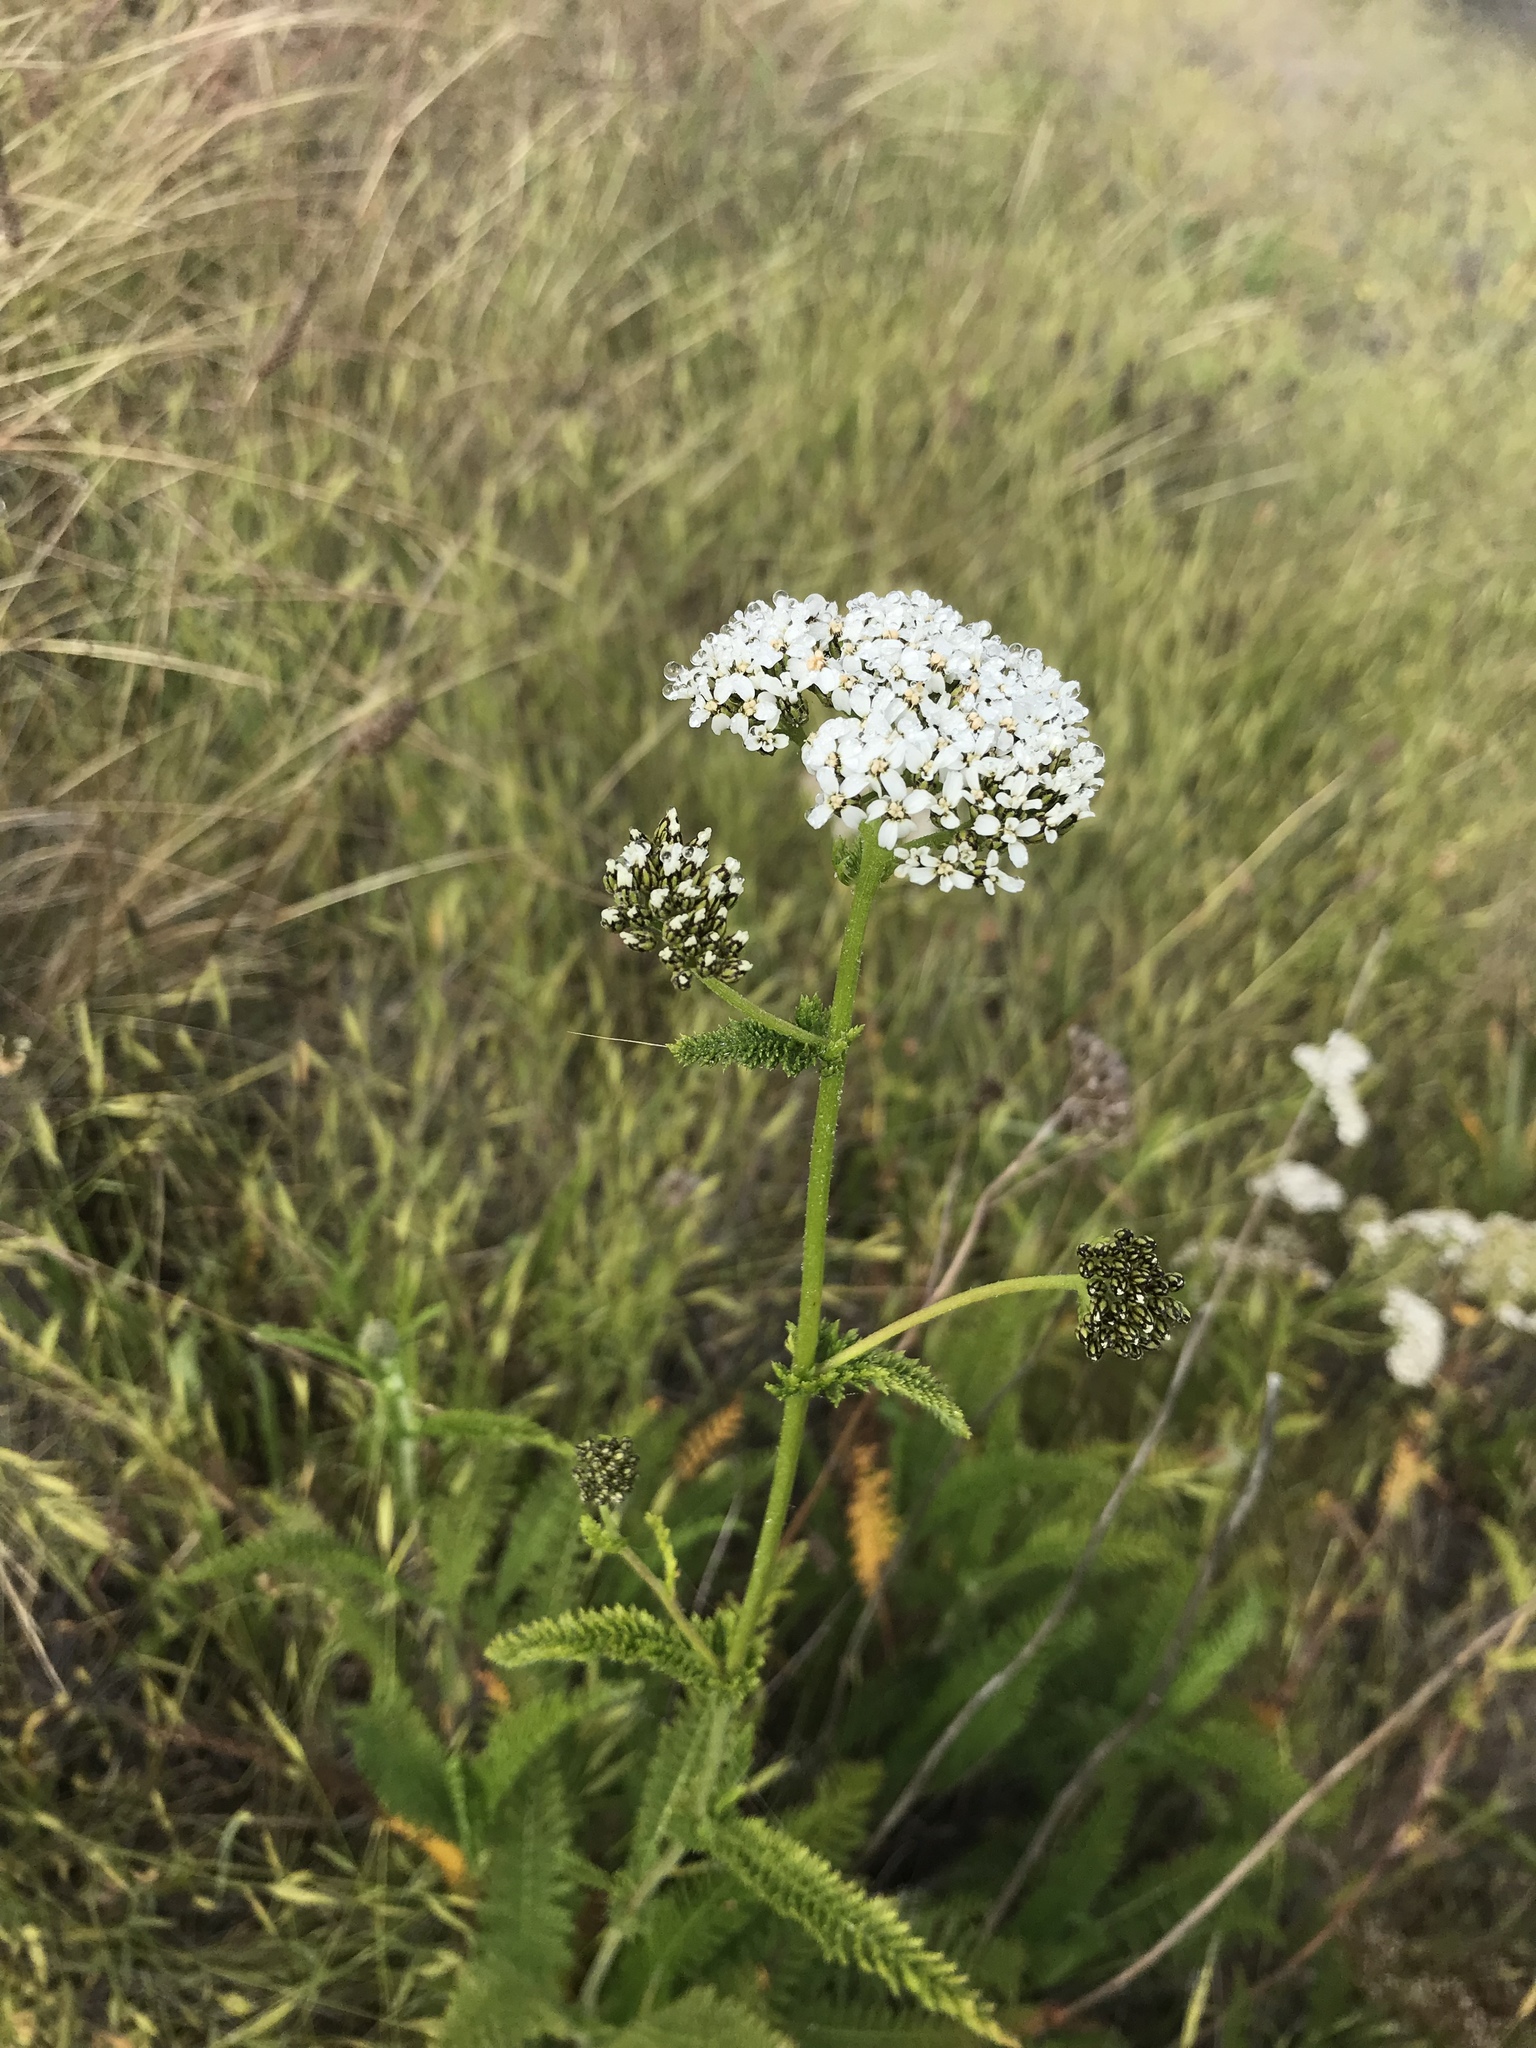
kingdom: Plantae
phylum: Tracheophyta
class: Magnoliopsida
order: Asterales
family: Asteraceae
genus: Achillea
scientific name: Achillea millefolium
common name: Yarrow
